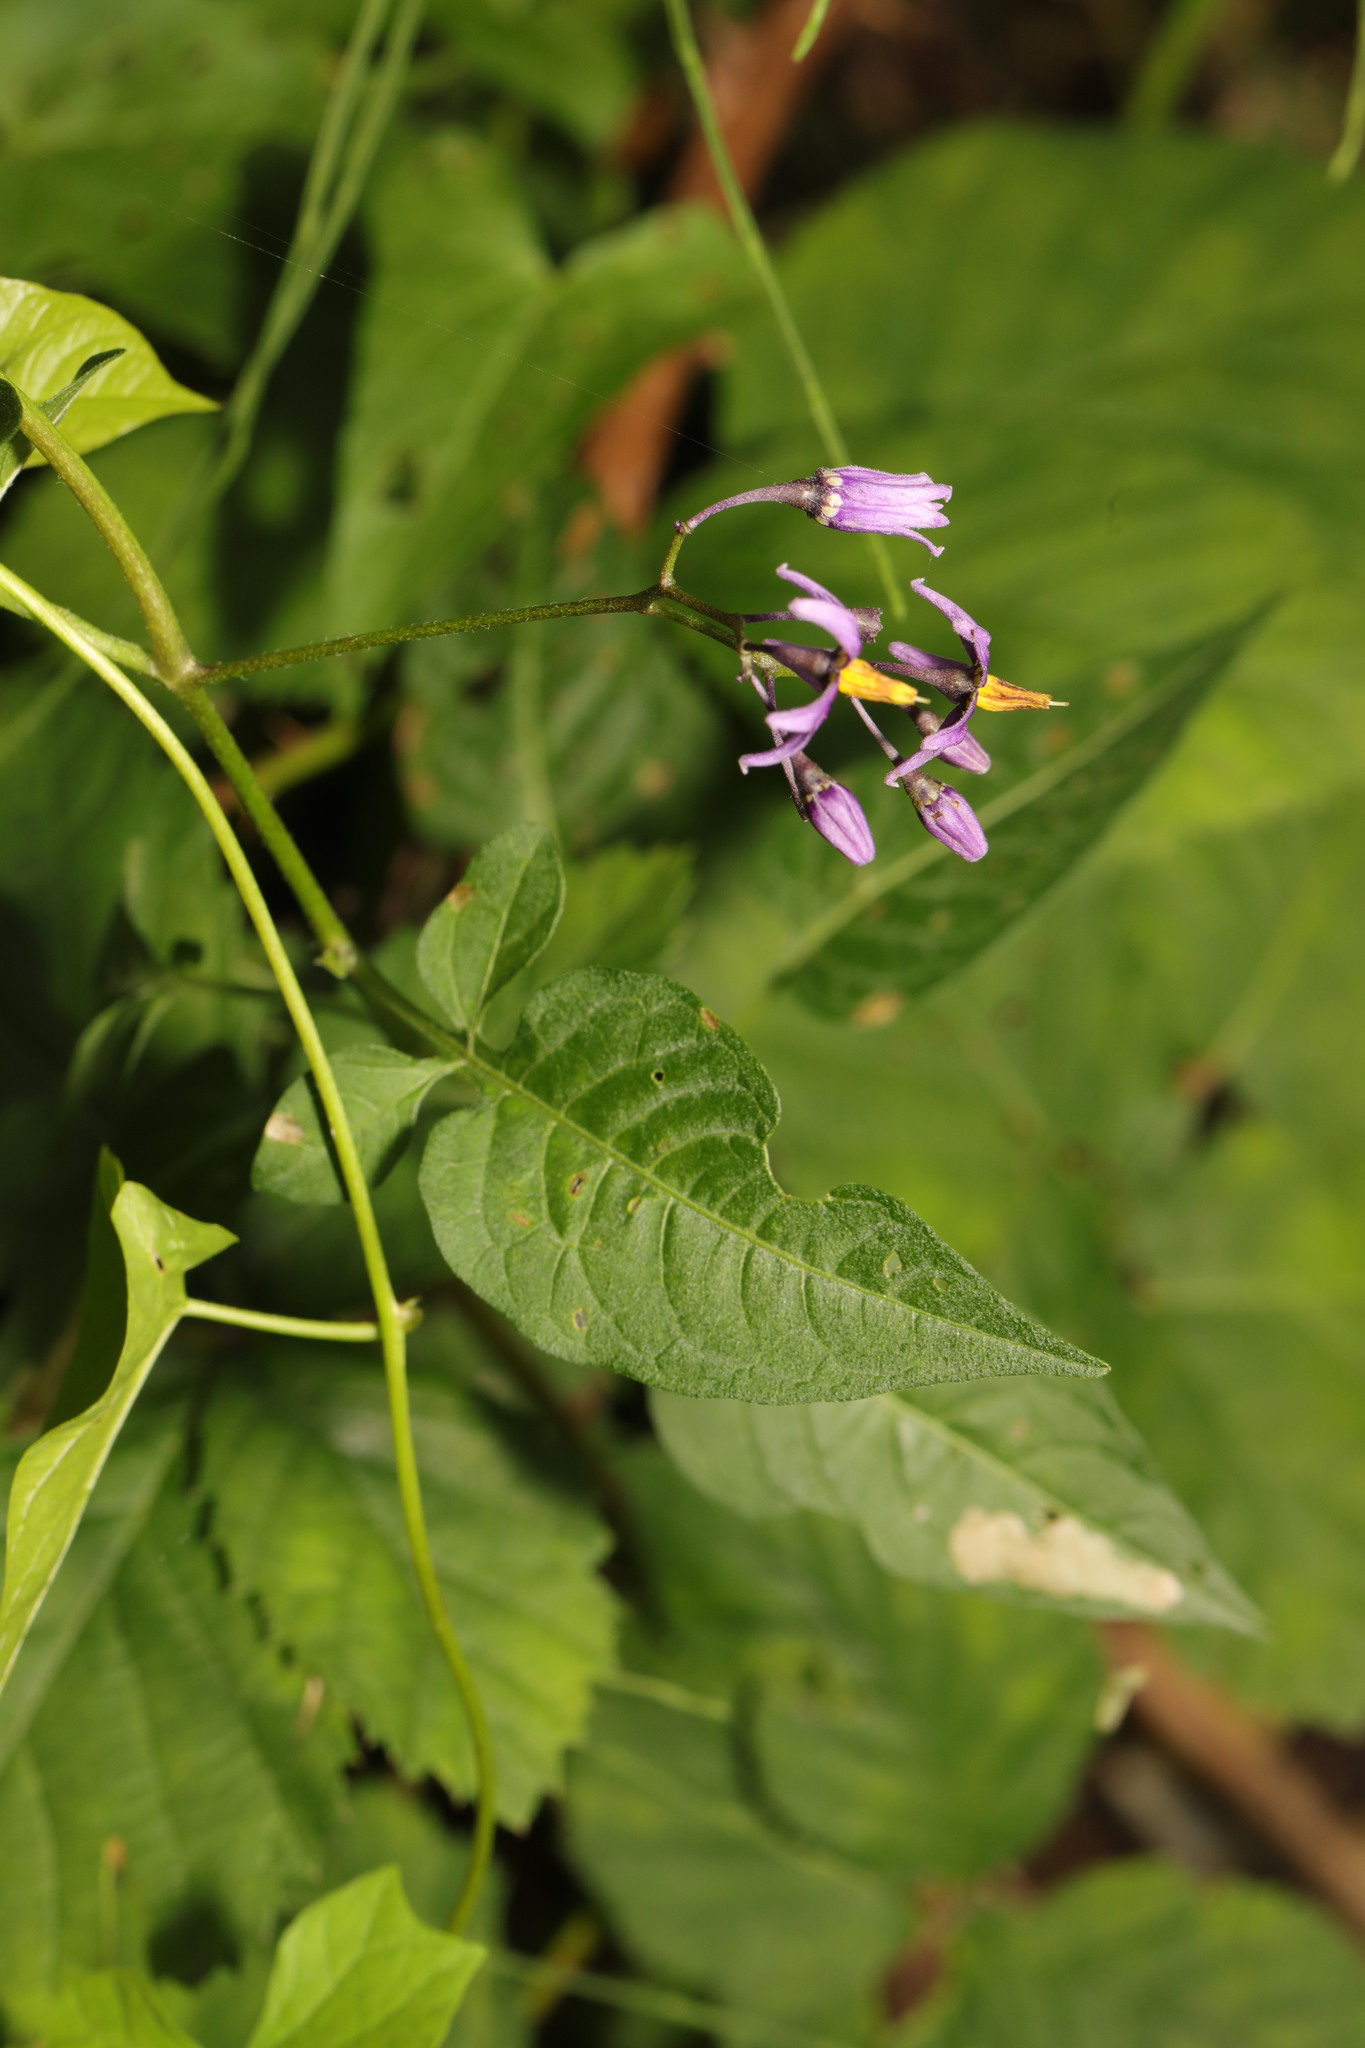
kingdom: Plantae
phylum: Tracheophyta
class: Magnoliopsida
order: Solanales
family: Solanaceae
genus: Solanum
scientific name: Solanum dulcamara
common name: Climbing nightshade
